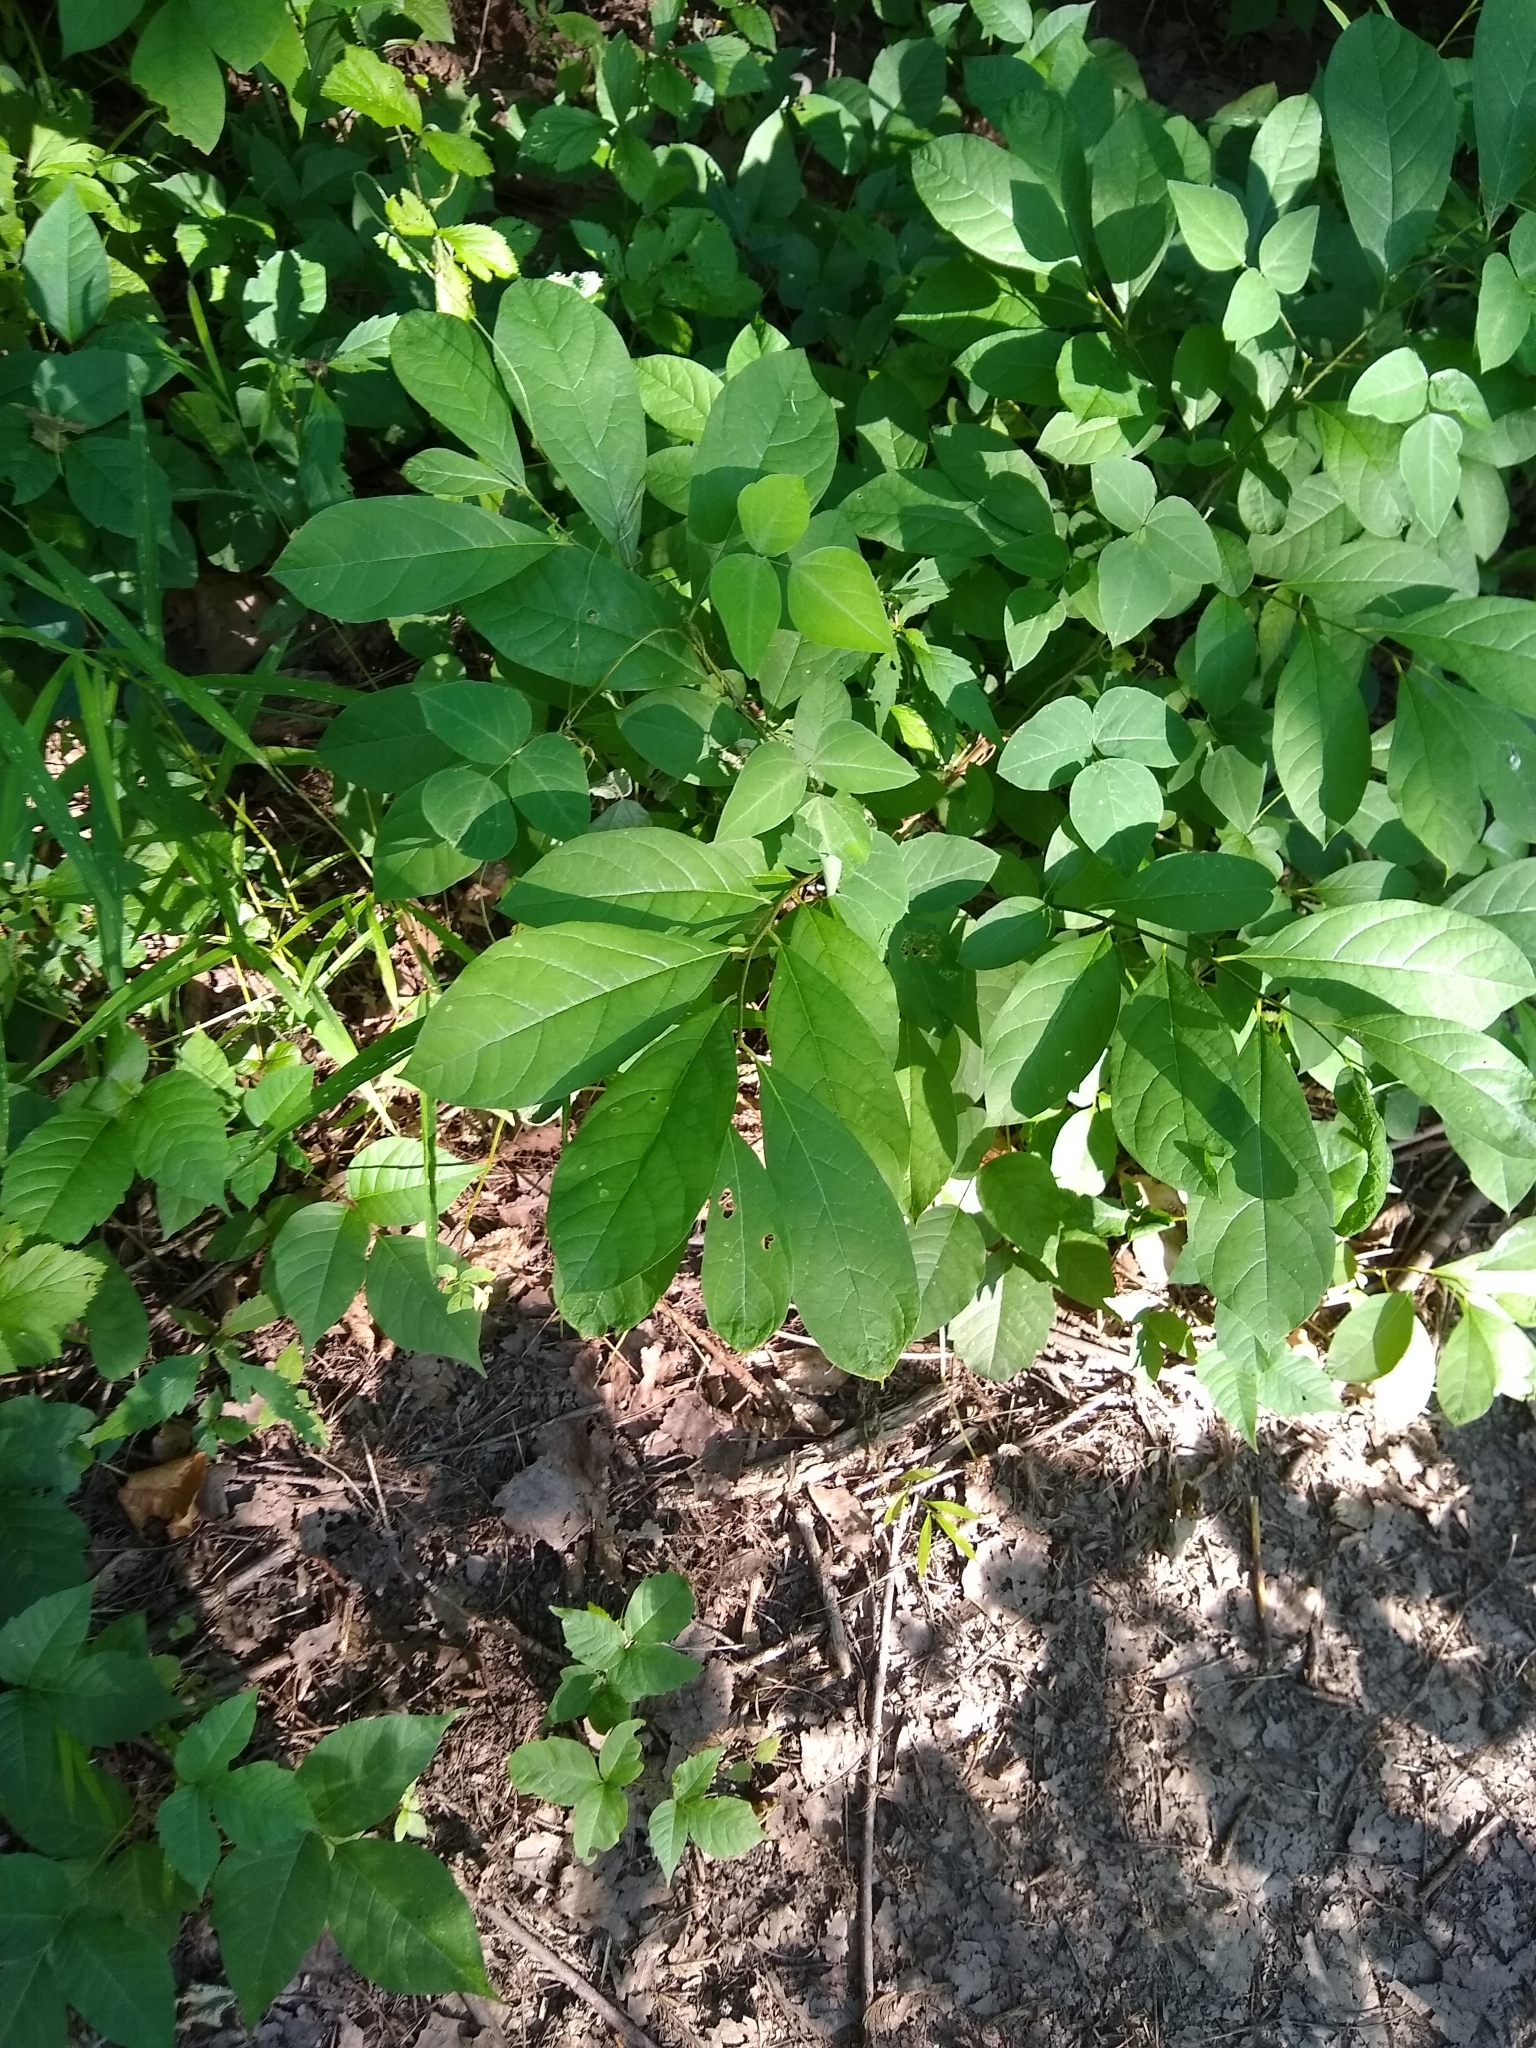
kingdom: Plantae
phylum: Tracheophyta
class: Magnoliopsida
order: Laurales
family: Lauraceae
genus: Lindera
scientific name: Lindera benzoin
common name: Spicebush
